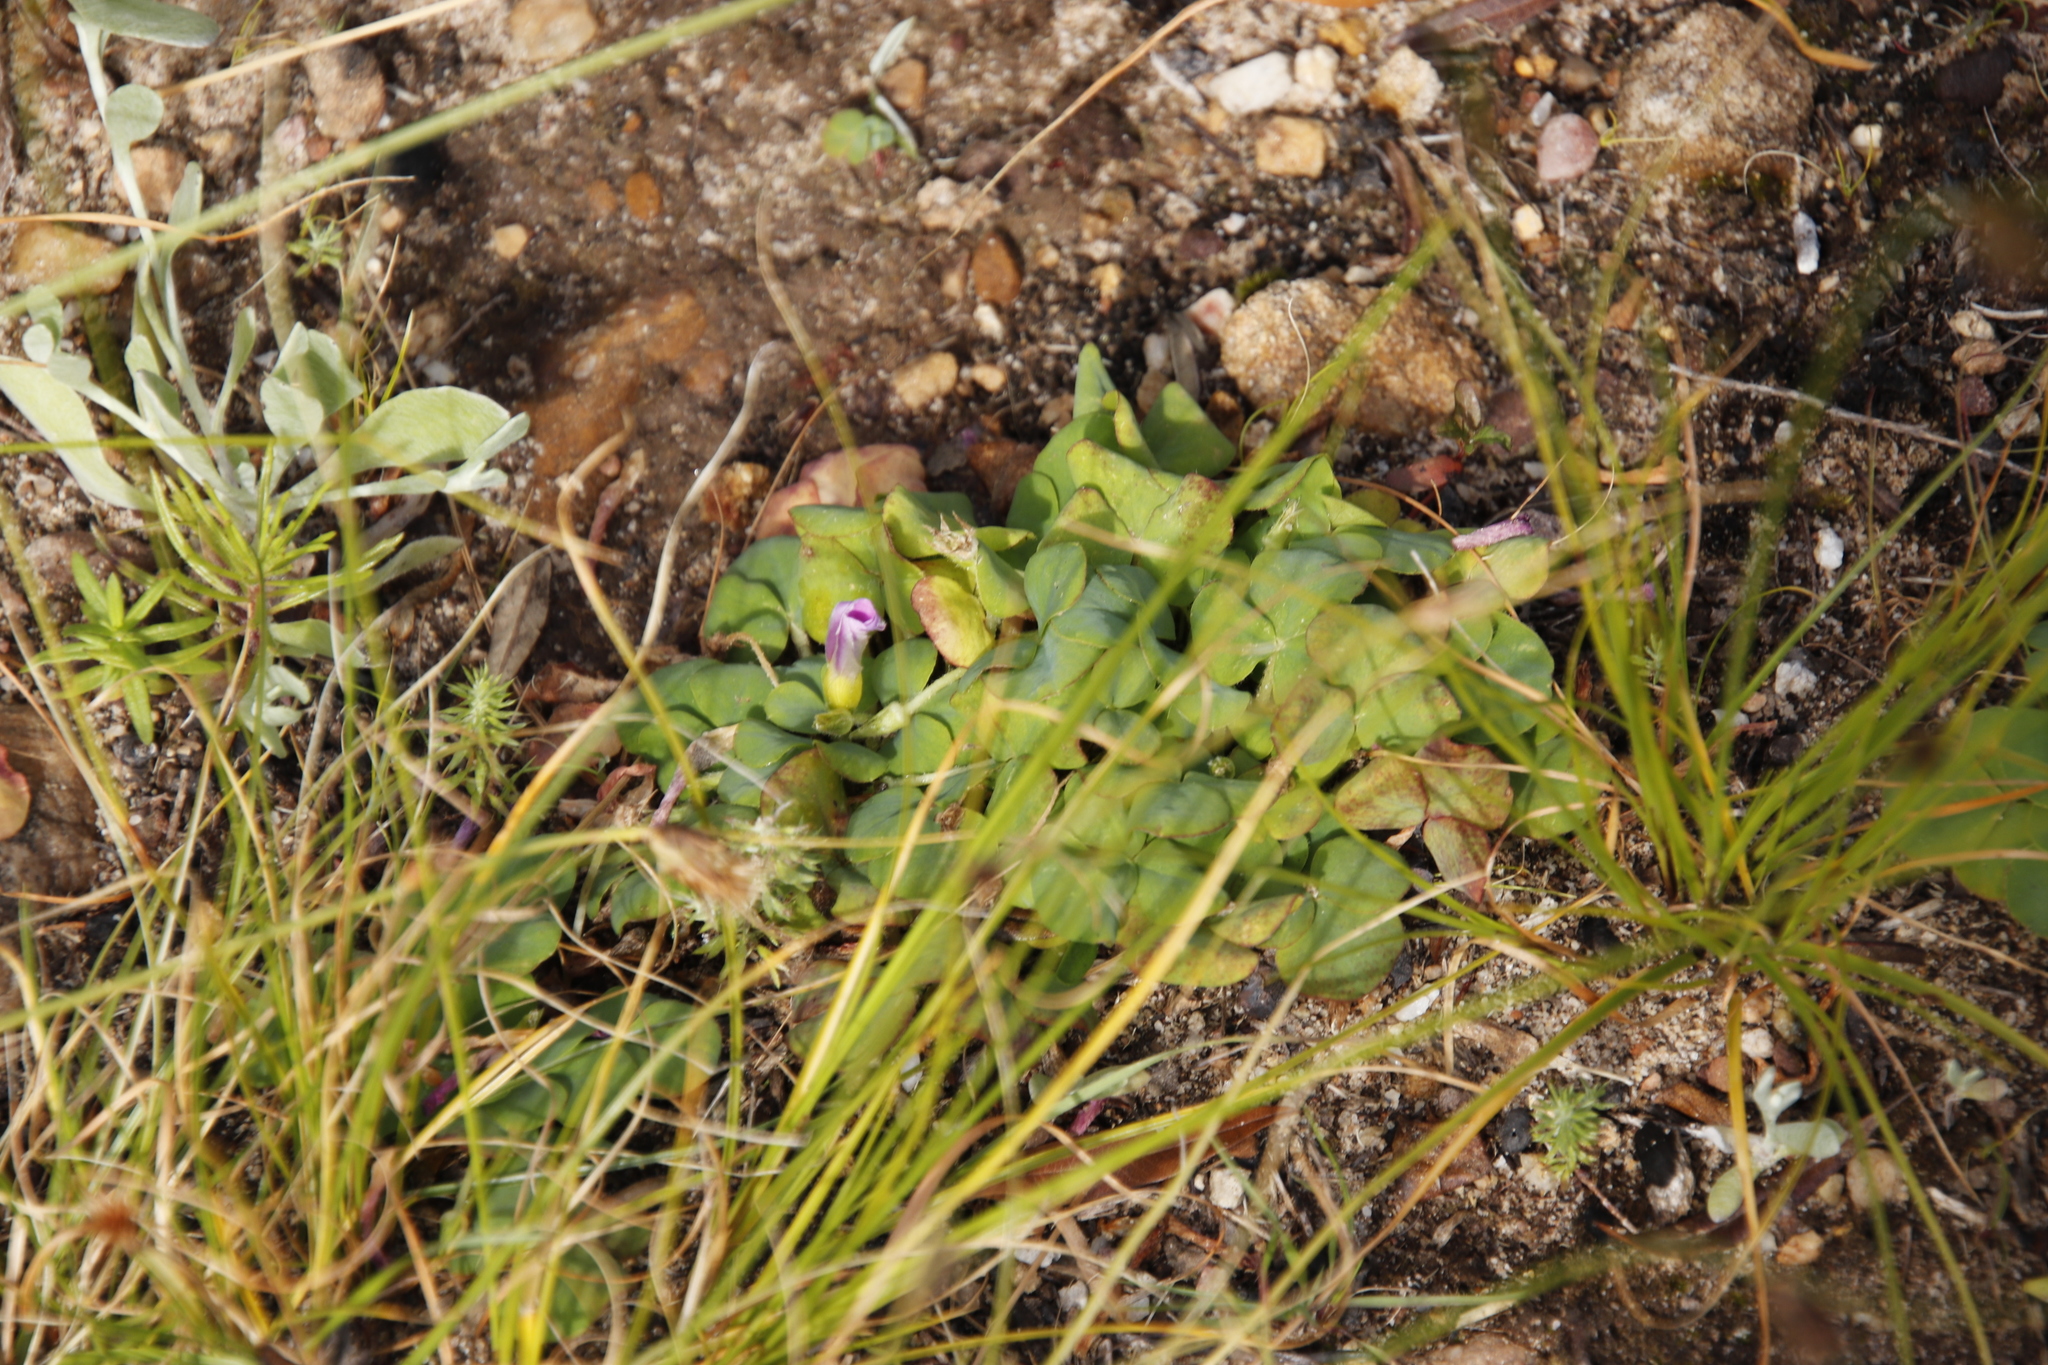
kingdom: Plantae
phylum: Tracheophyta
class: Magnoliopsida
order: Oxalidales
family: Oxalidaceae
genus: Oxalis
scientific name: Oxalis purpurea
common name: Purple woodsorrel
